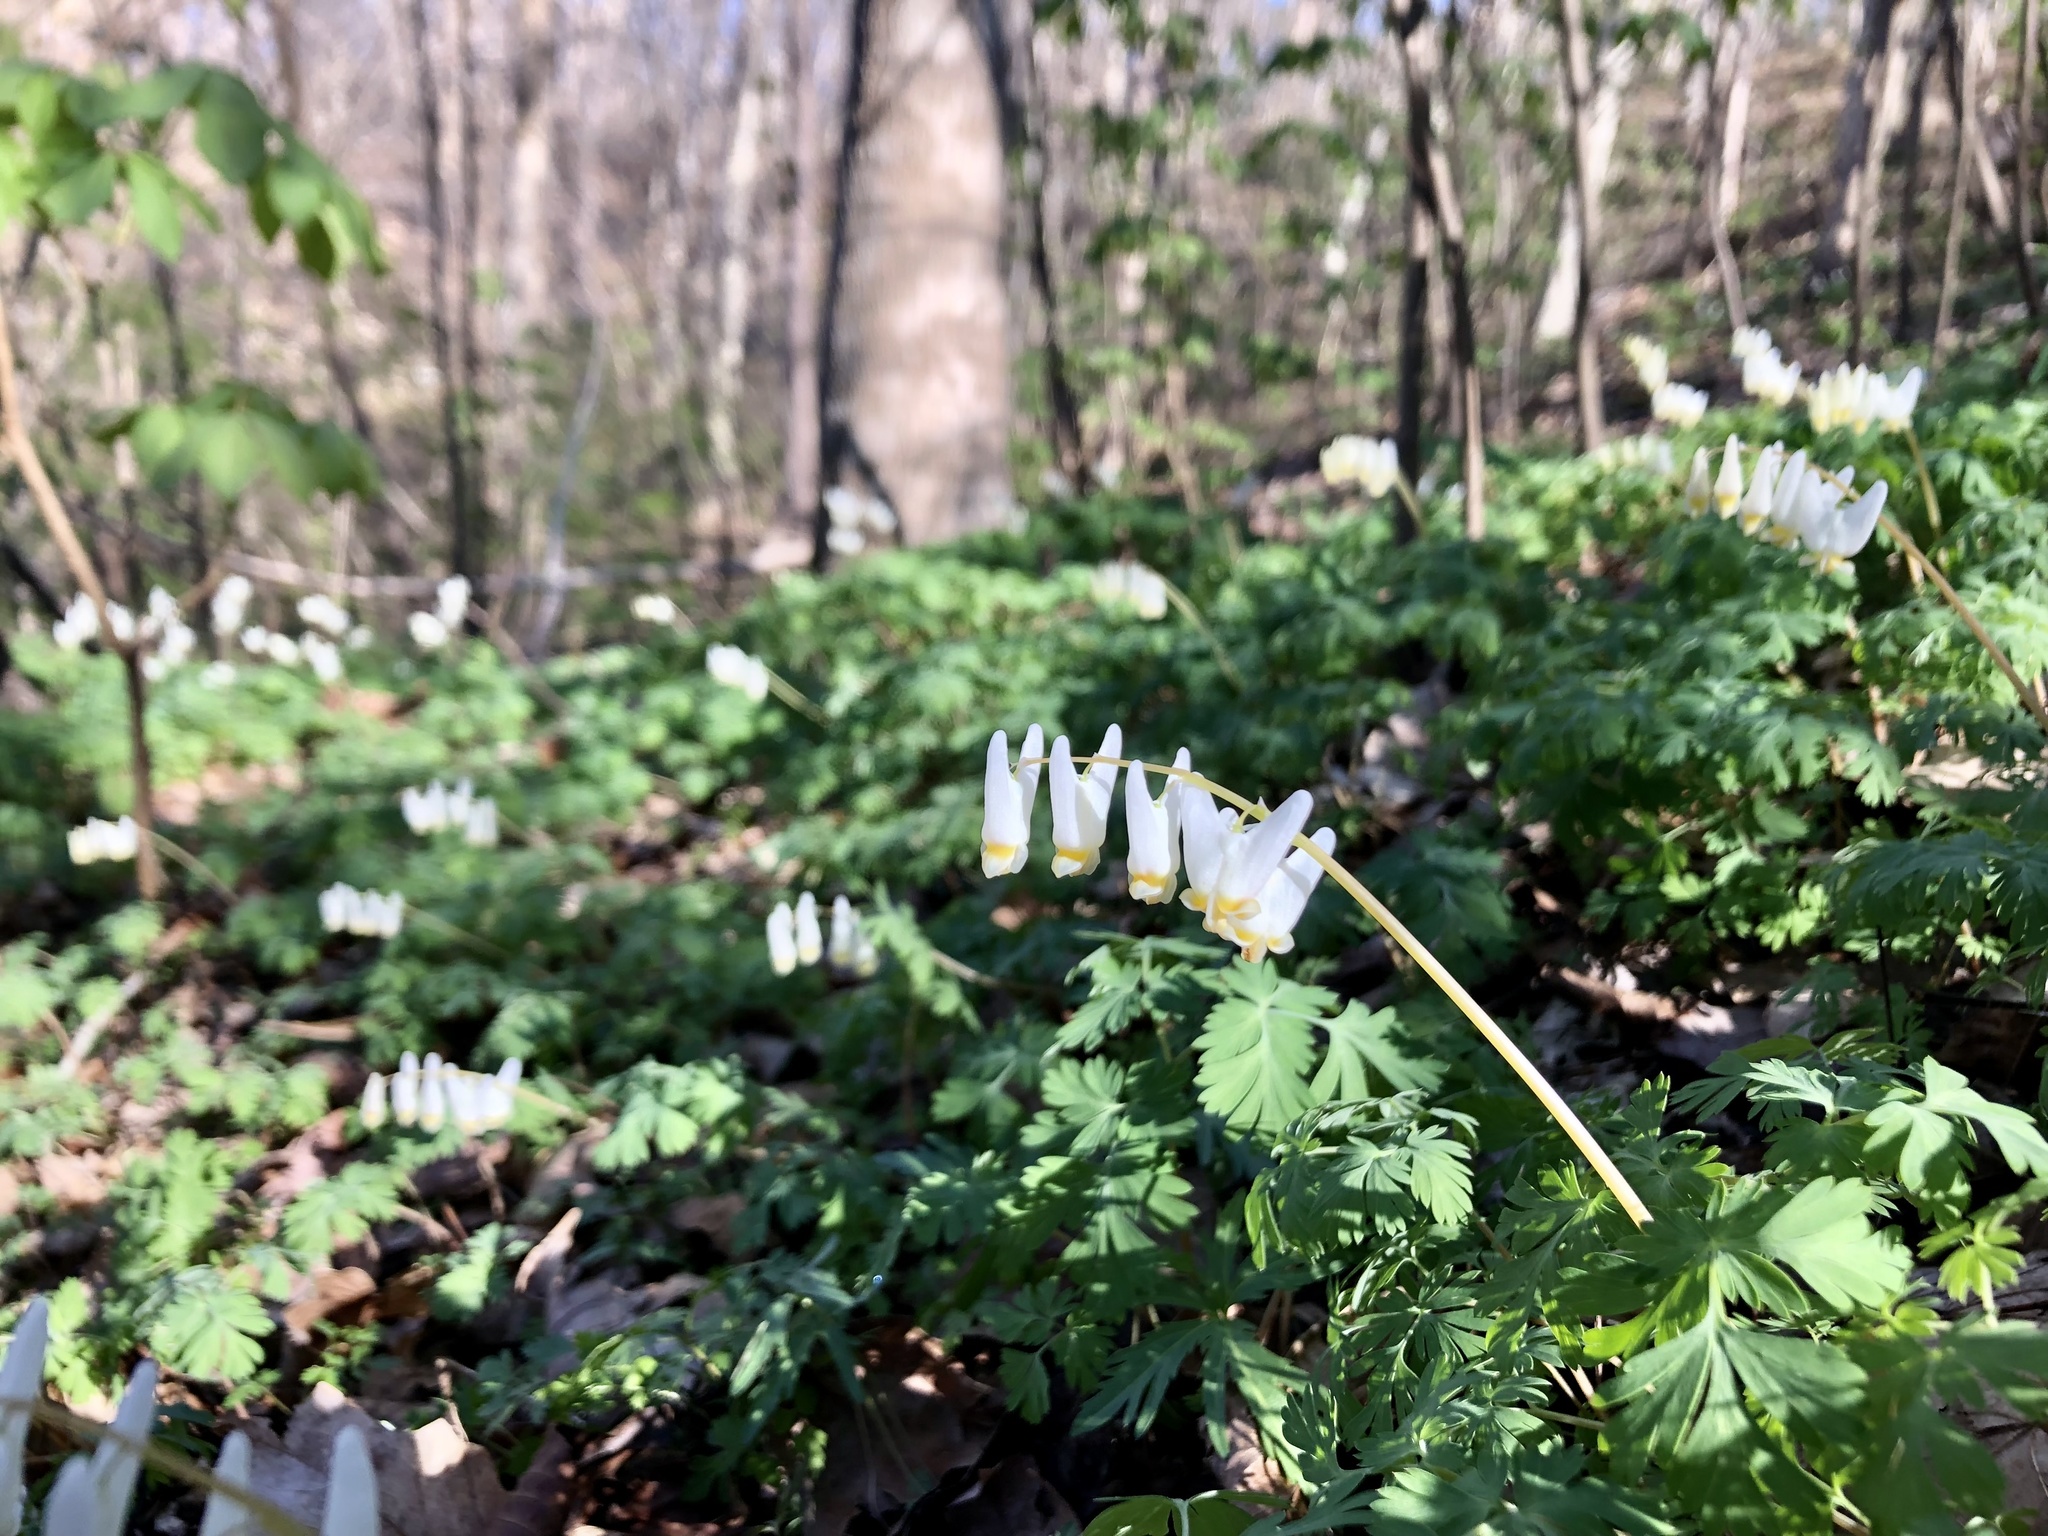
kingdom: Plantae
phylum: Tracheophyta
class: Magnoliopsida
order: Ranunculales
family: Papaveraceae
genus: Dicentra
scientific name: Dicentra cucullaria
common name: Dutchman's breeches
